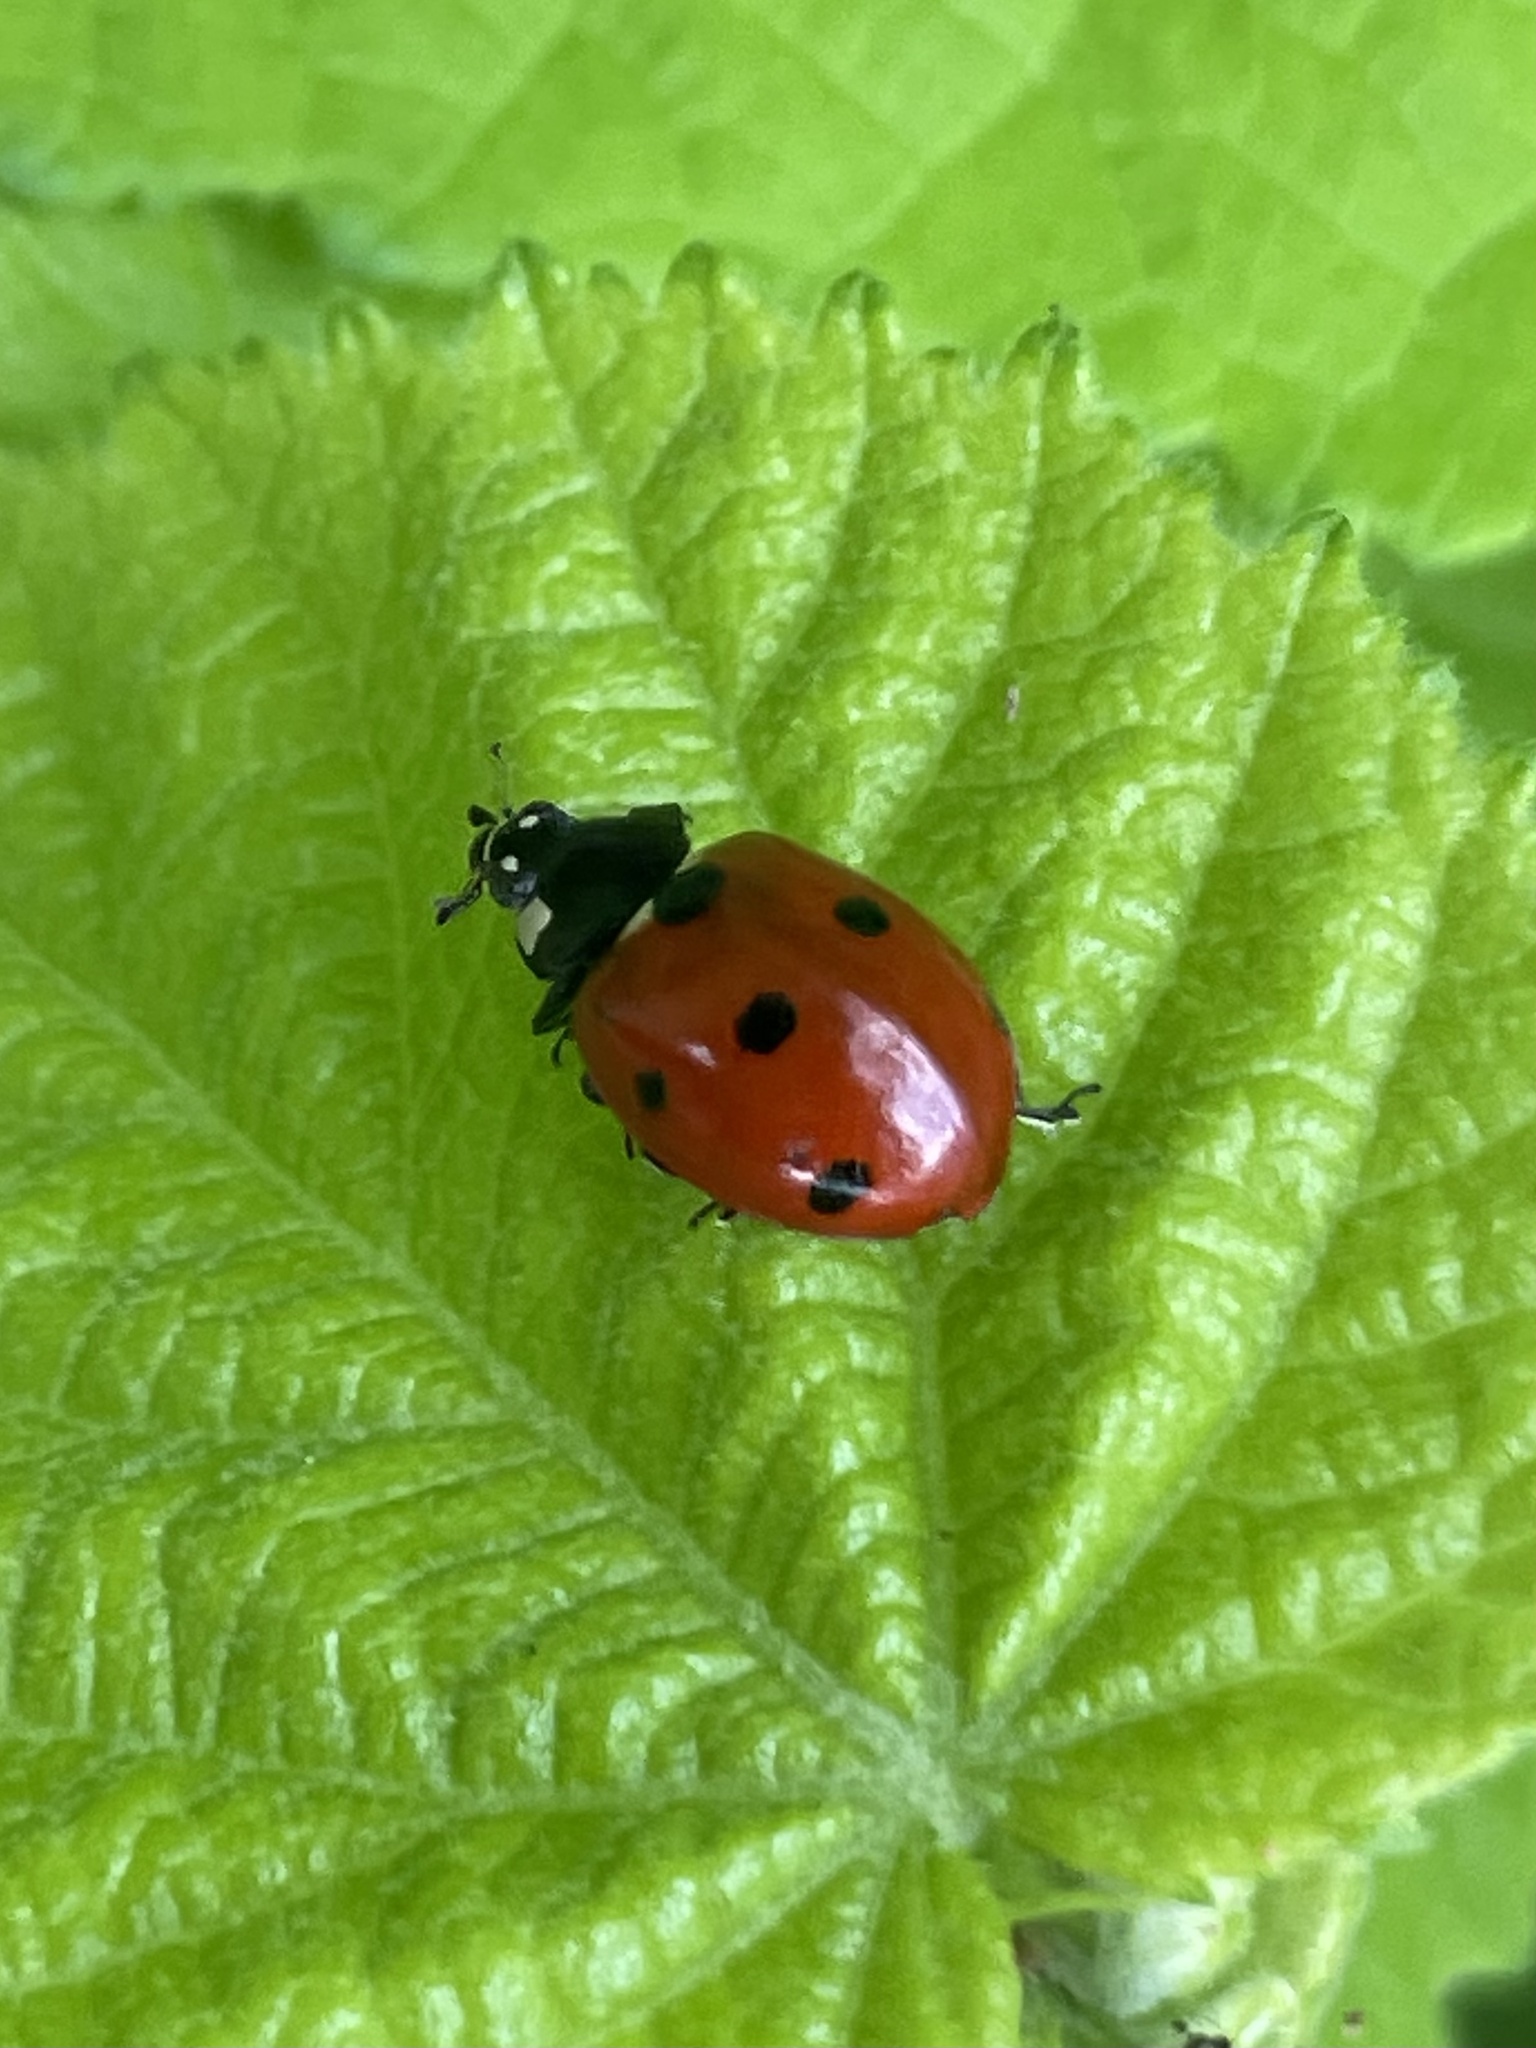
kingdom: Animalia
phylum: Arthropoda
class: Insecta
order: Coleoptera
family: Coccinellidae
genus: Coccinella
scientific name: Coccinella septempunctata
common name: Sevenspotted lady beetle
